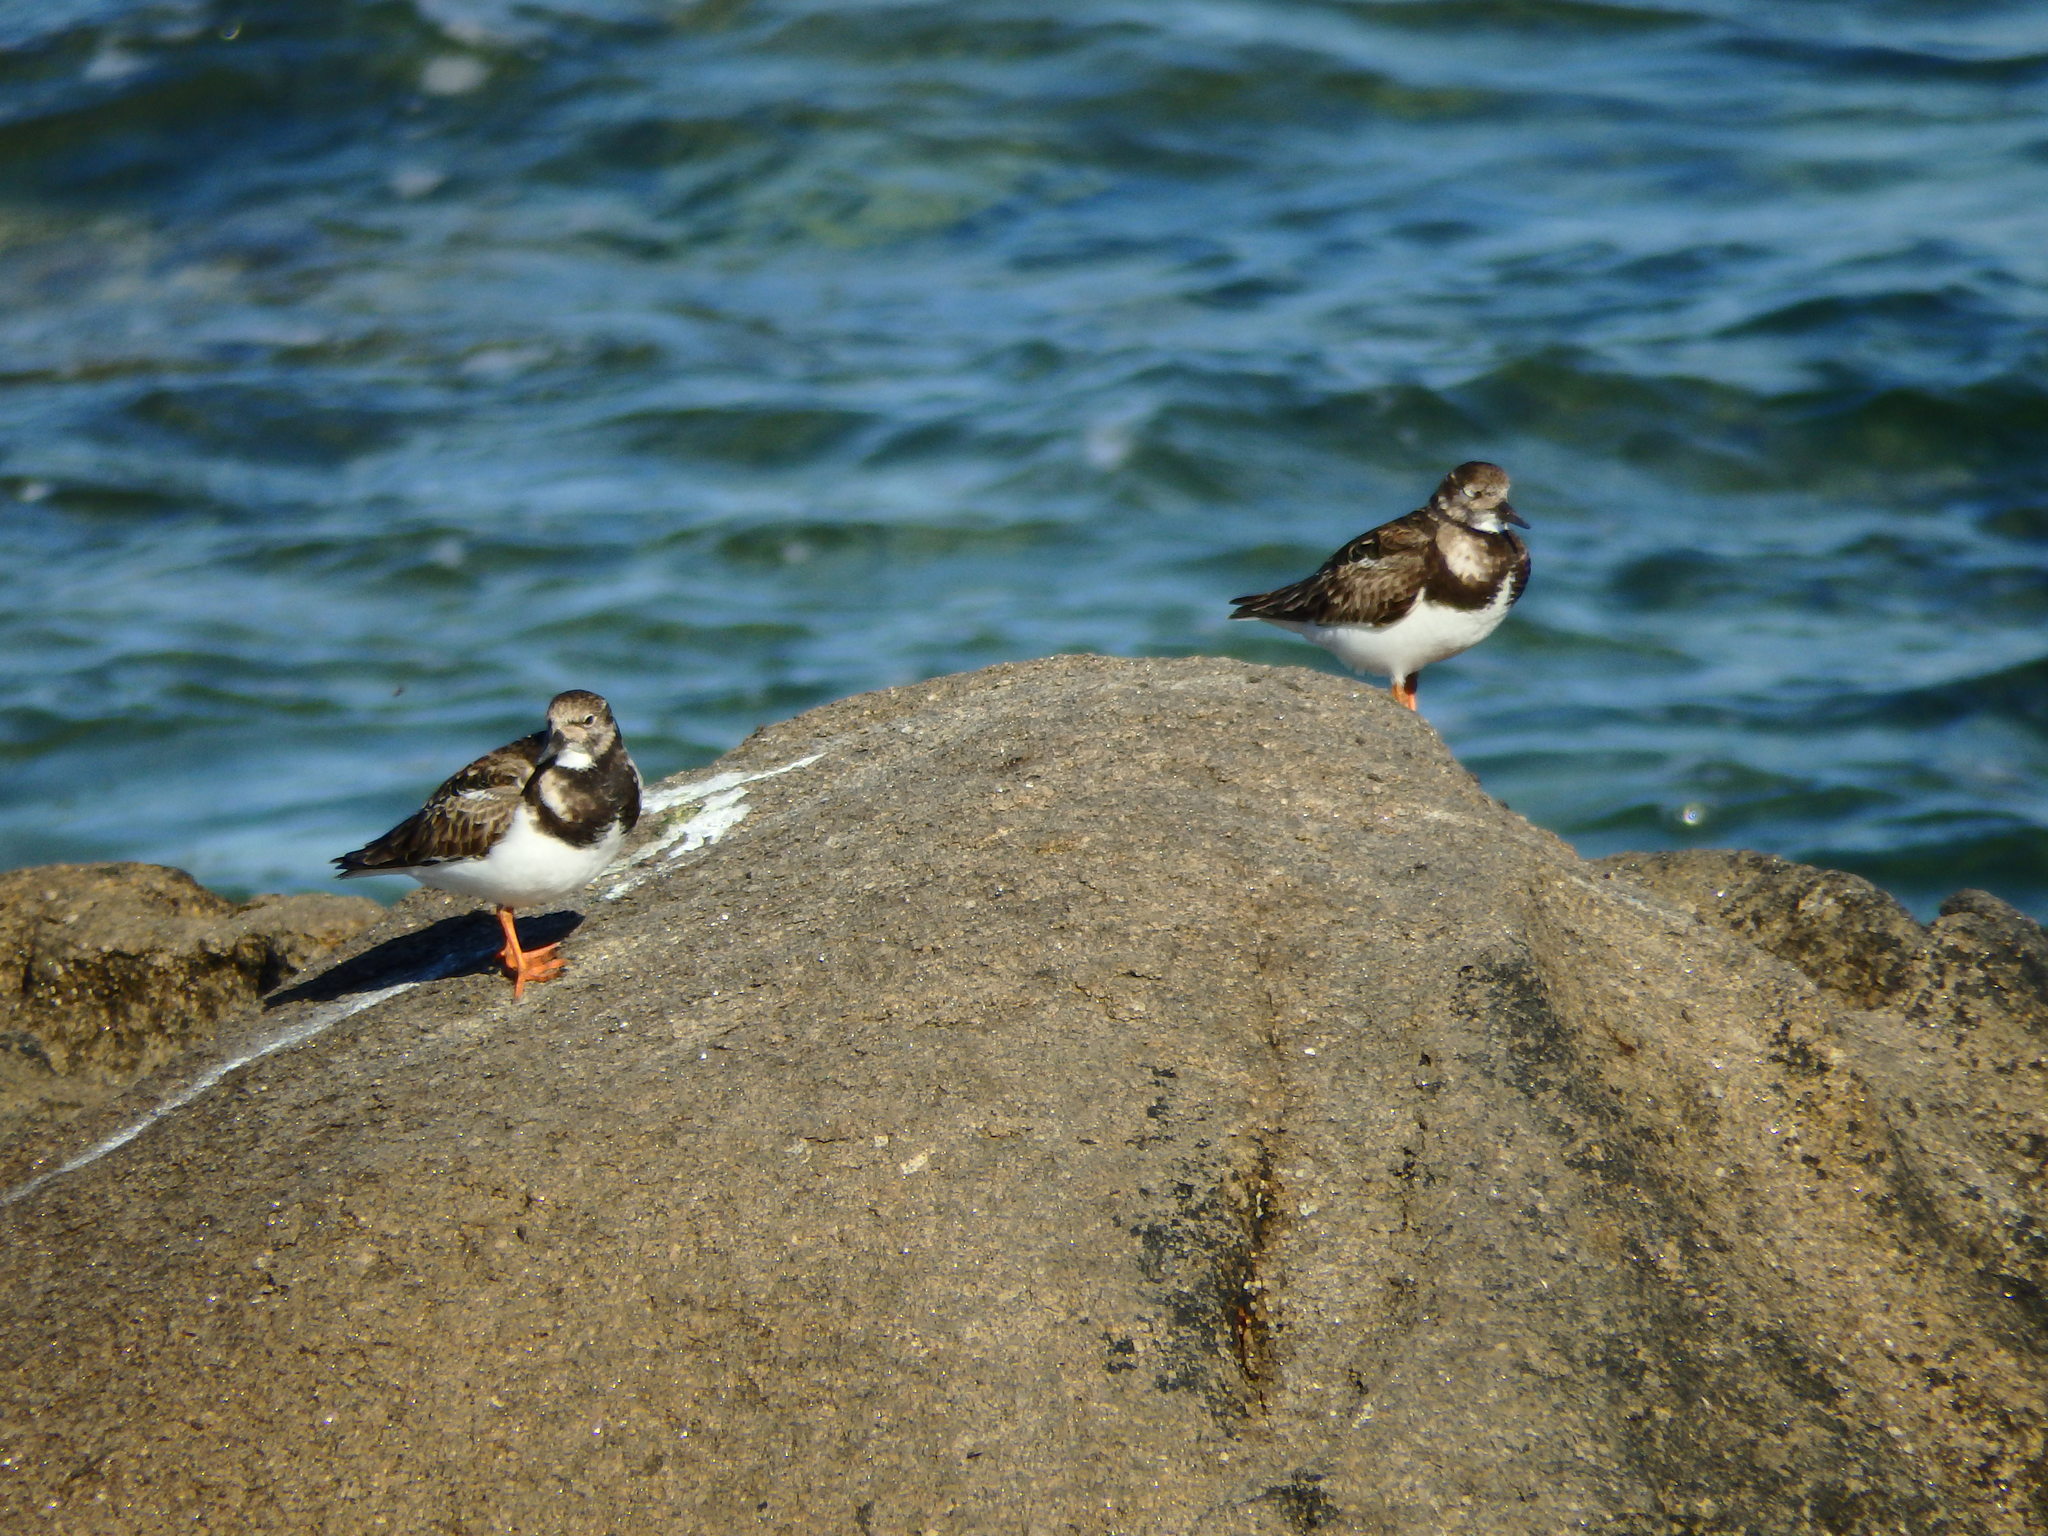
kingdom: Animalia
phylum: Chordata
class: Aves
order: Charadriiformes
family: Scolopacidae
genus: Arenaria
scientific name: Arenaria interpres
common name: Ruddy turnstone
